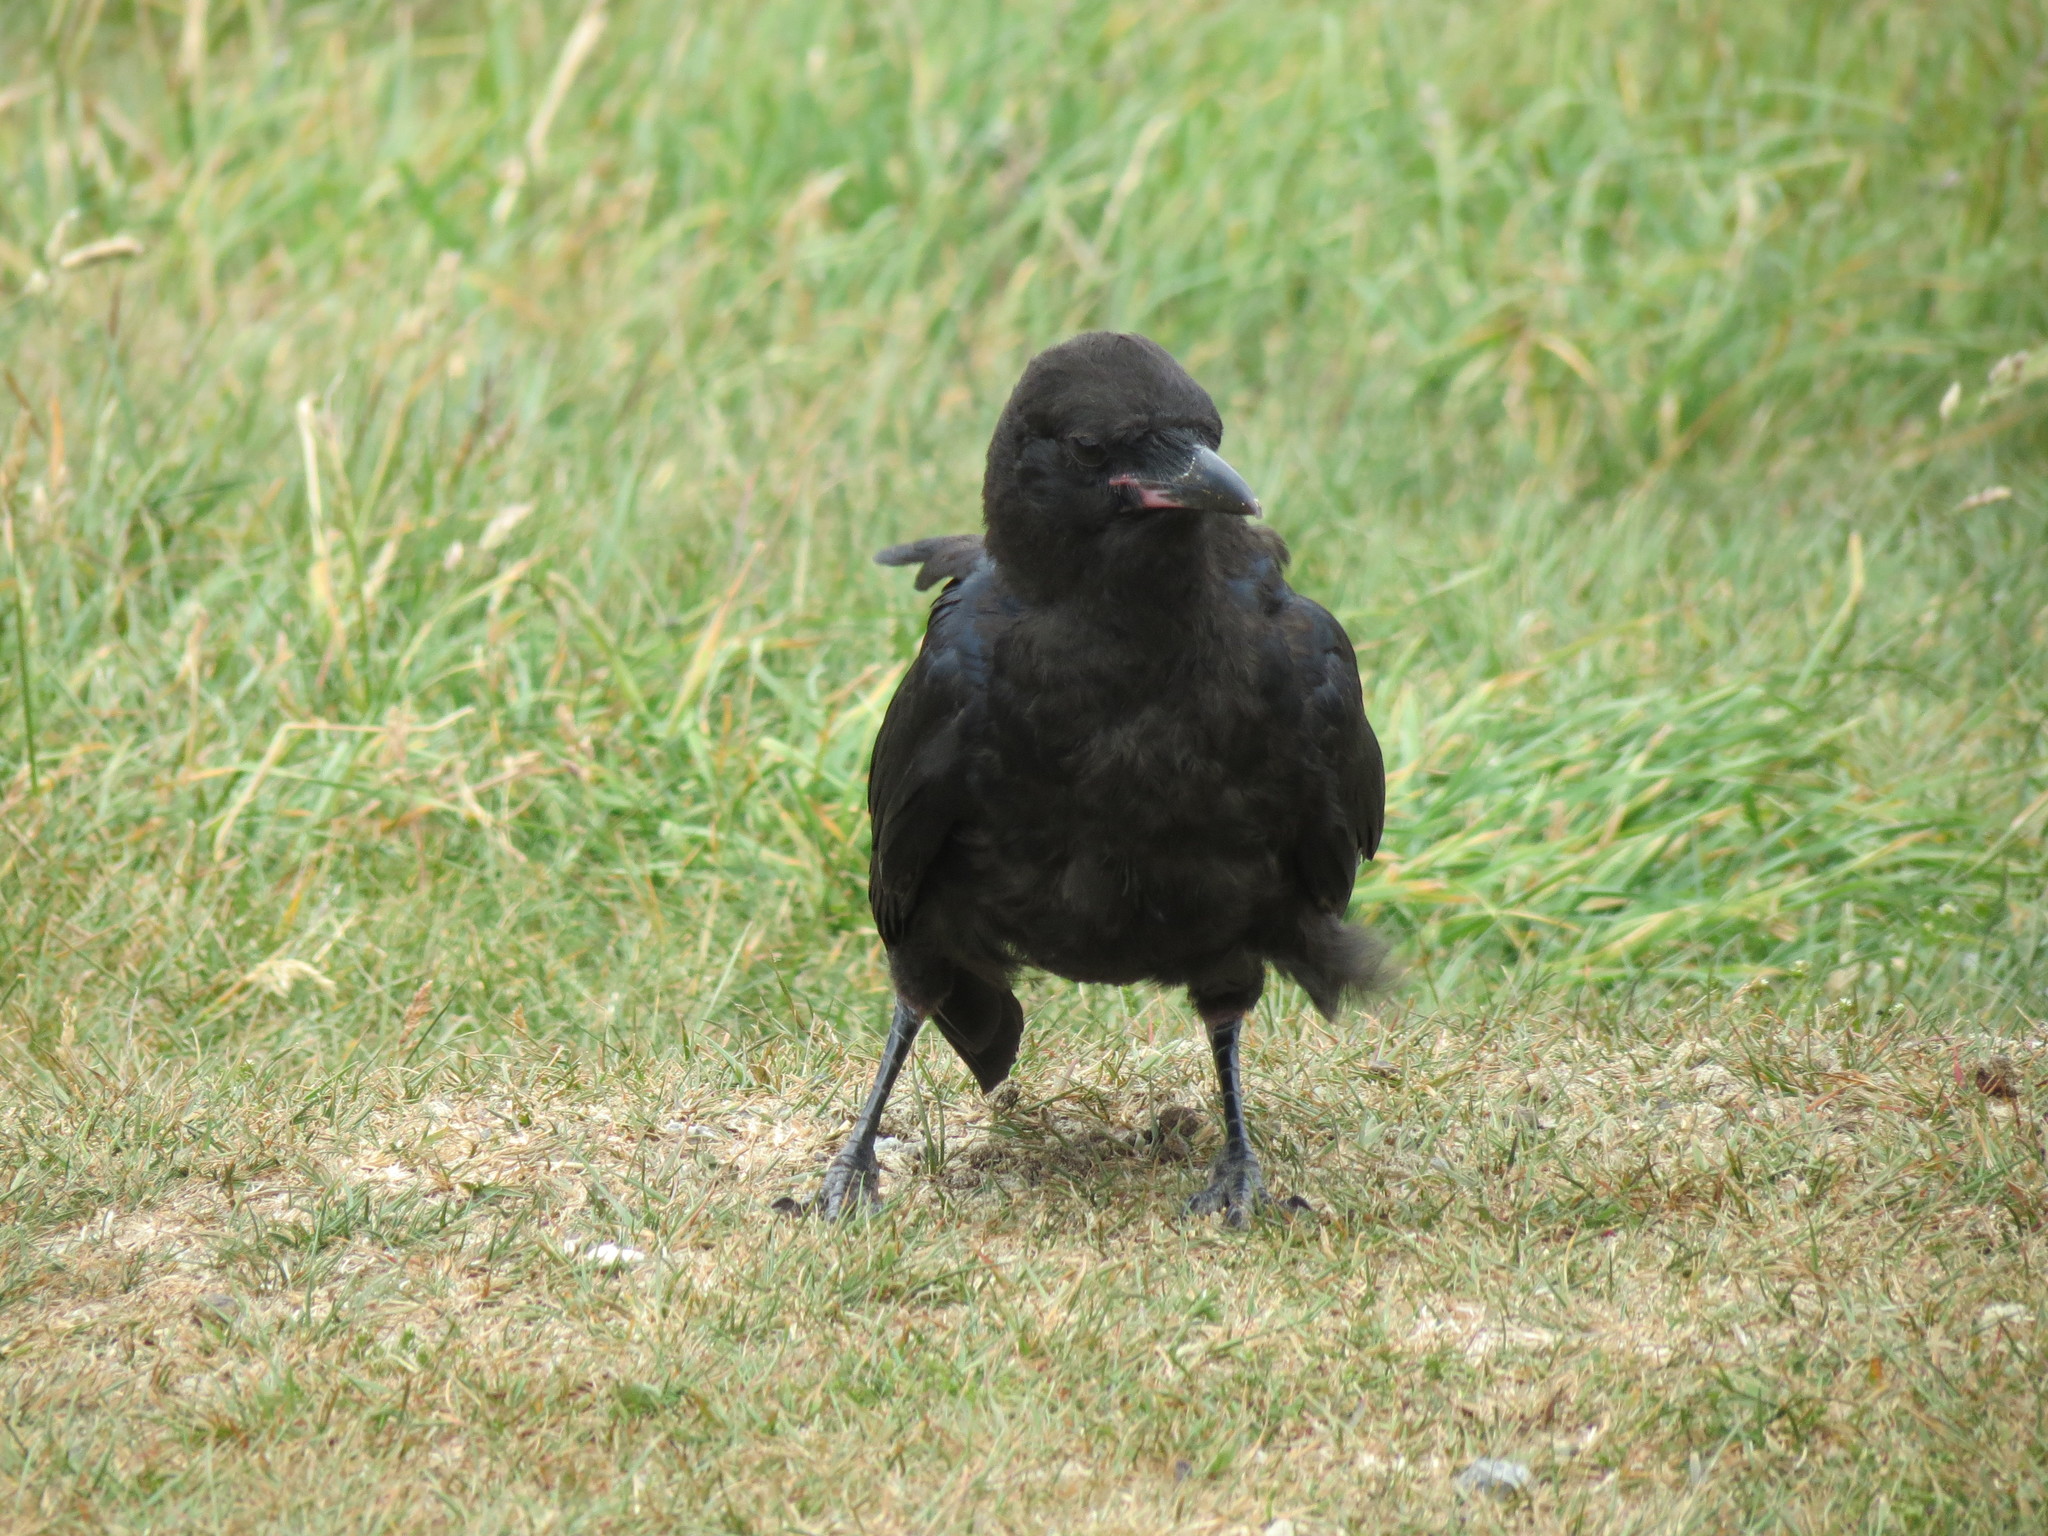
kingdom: Animalia
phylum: Chordata
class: Aves
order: Passeriformes
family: Corvidae
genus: Corvus
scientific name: Corvus mellori
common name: Little raven
